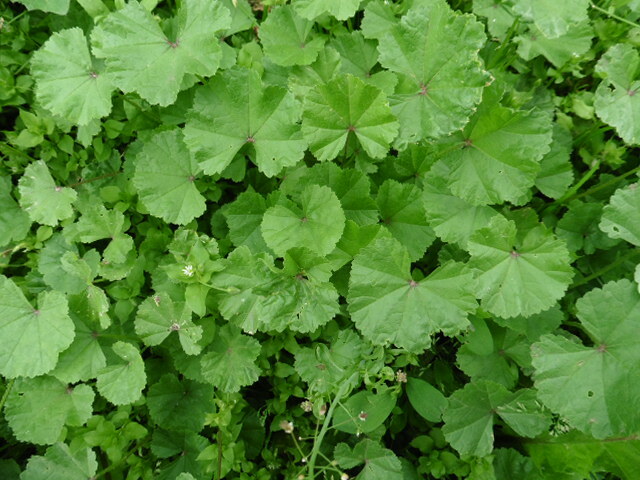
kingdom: Plantae
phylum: Tracheophyta
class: Magnoliopsida
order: Malvales
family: Malvaceae
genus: Malva
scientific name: Malva pusilla
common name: Small mallow
